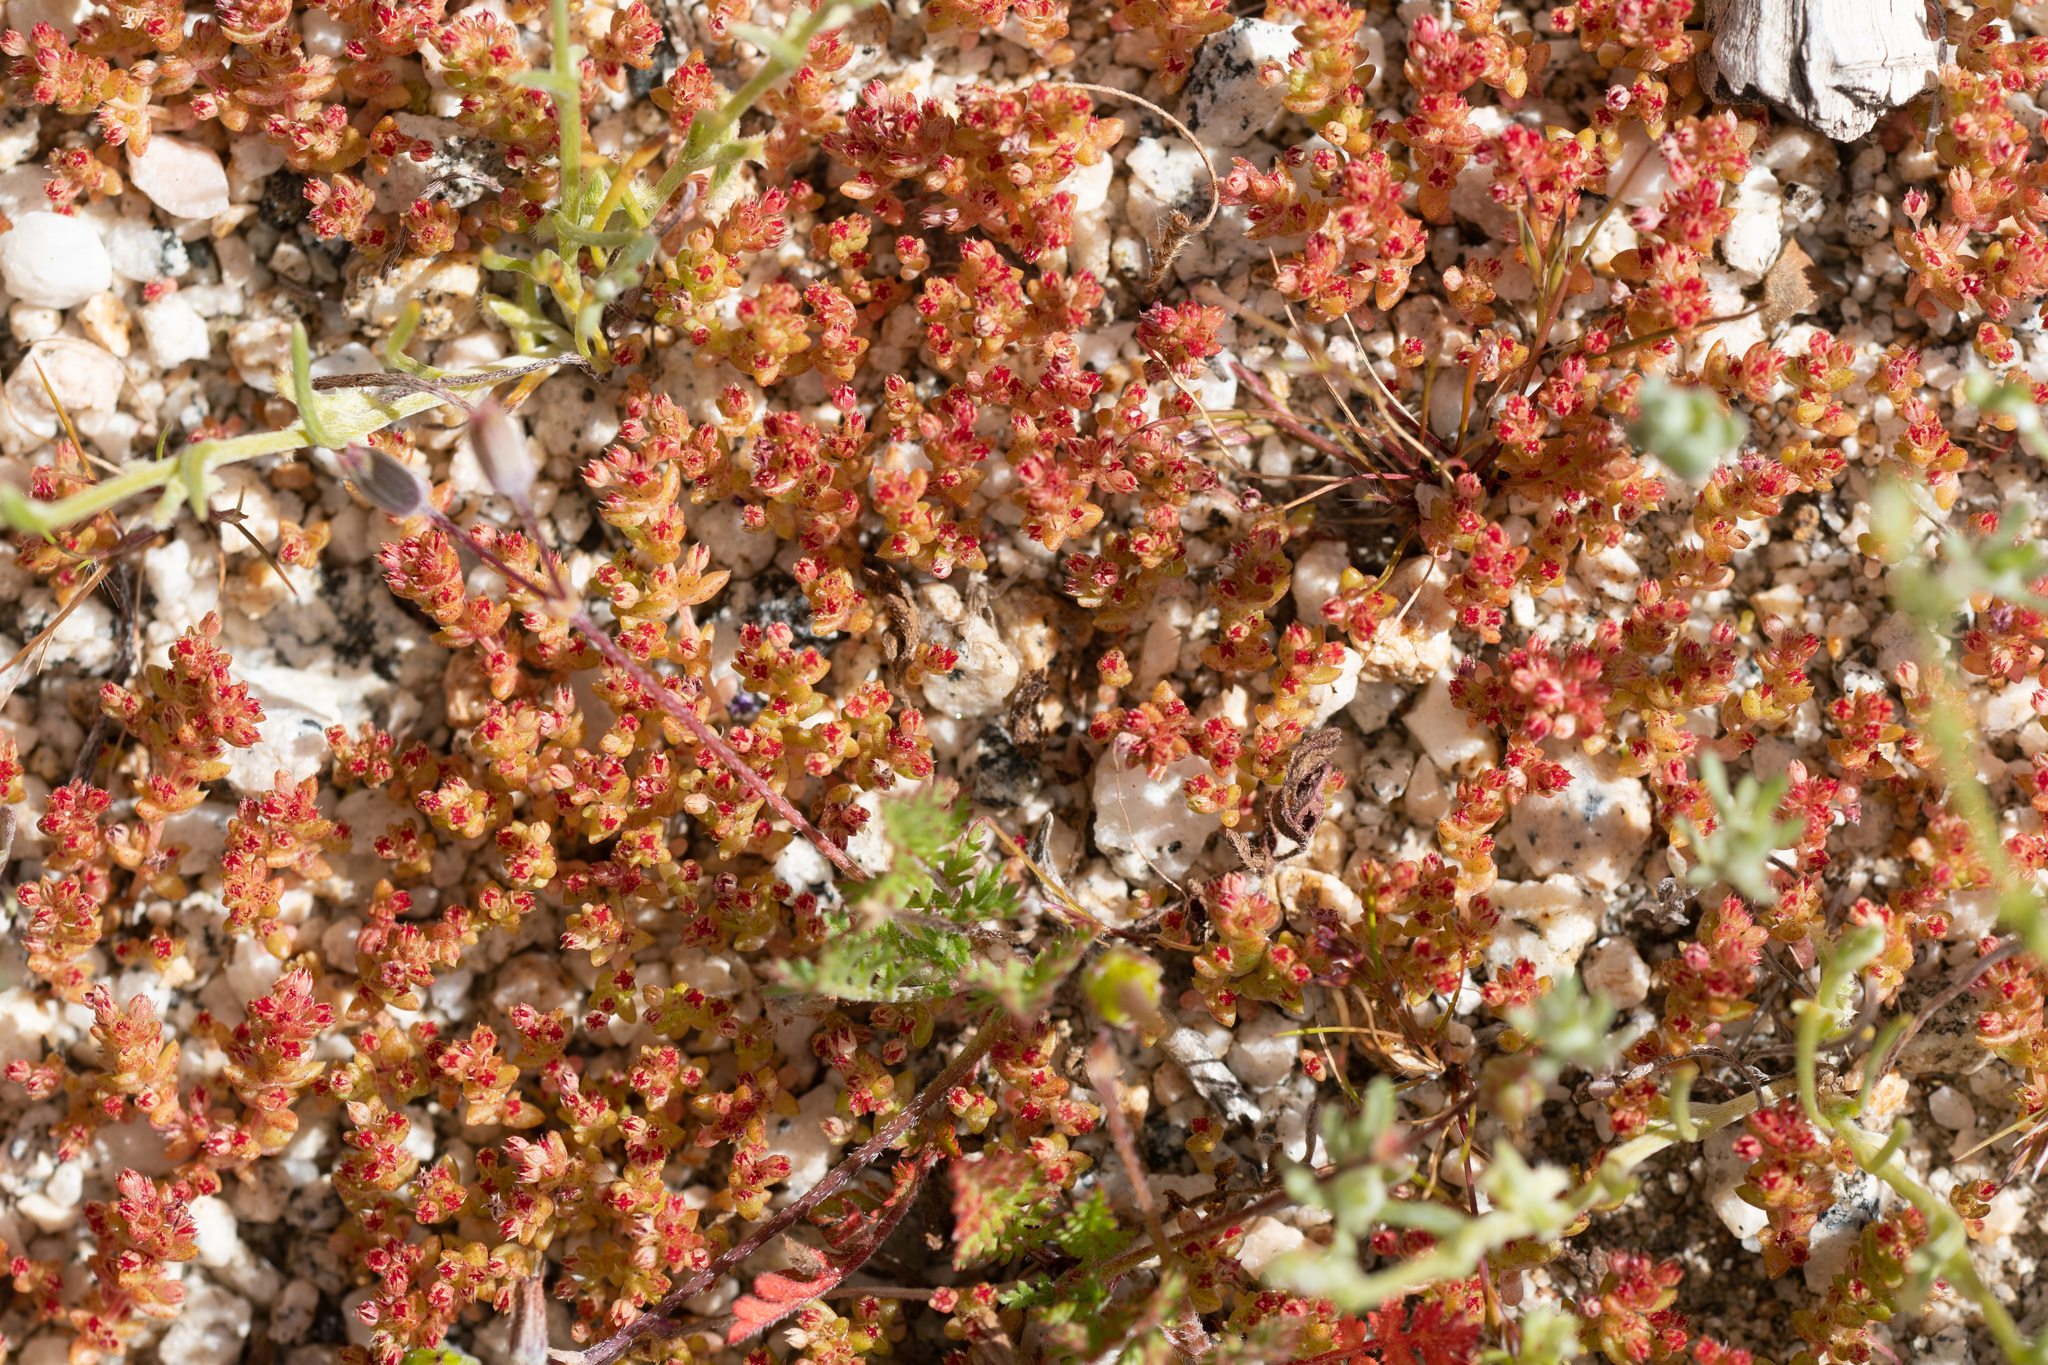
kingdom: Plantae
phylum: Tracheophyta
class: Magnoliopsida
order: Saxifragales
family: Crassulaceae
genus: Crassula
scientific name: Crassula connata
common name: Erect pygmyweed
